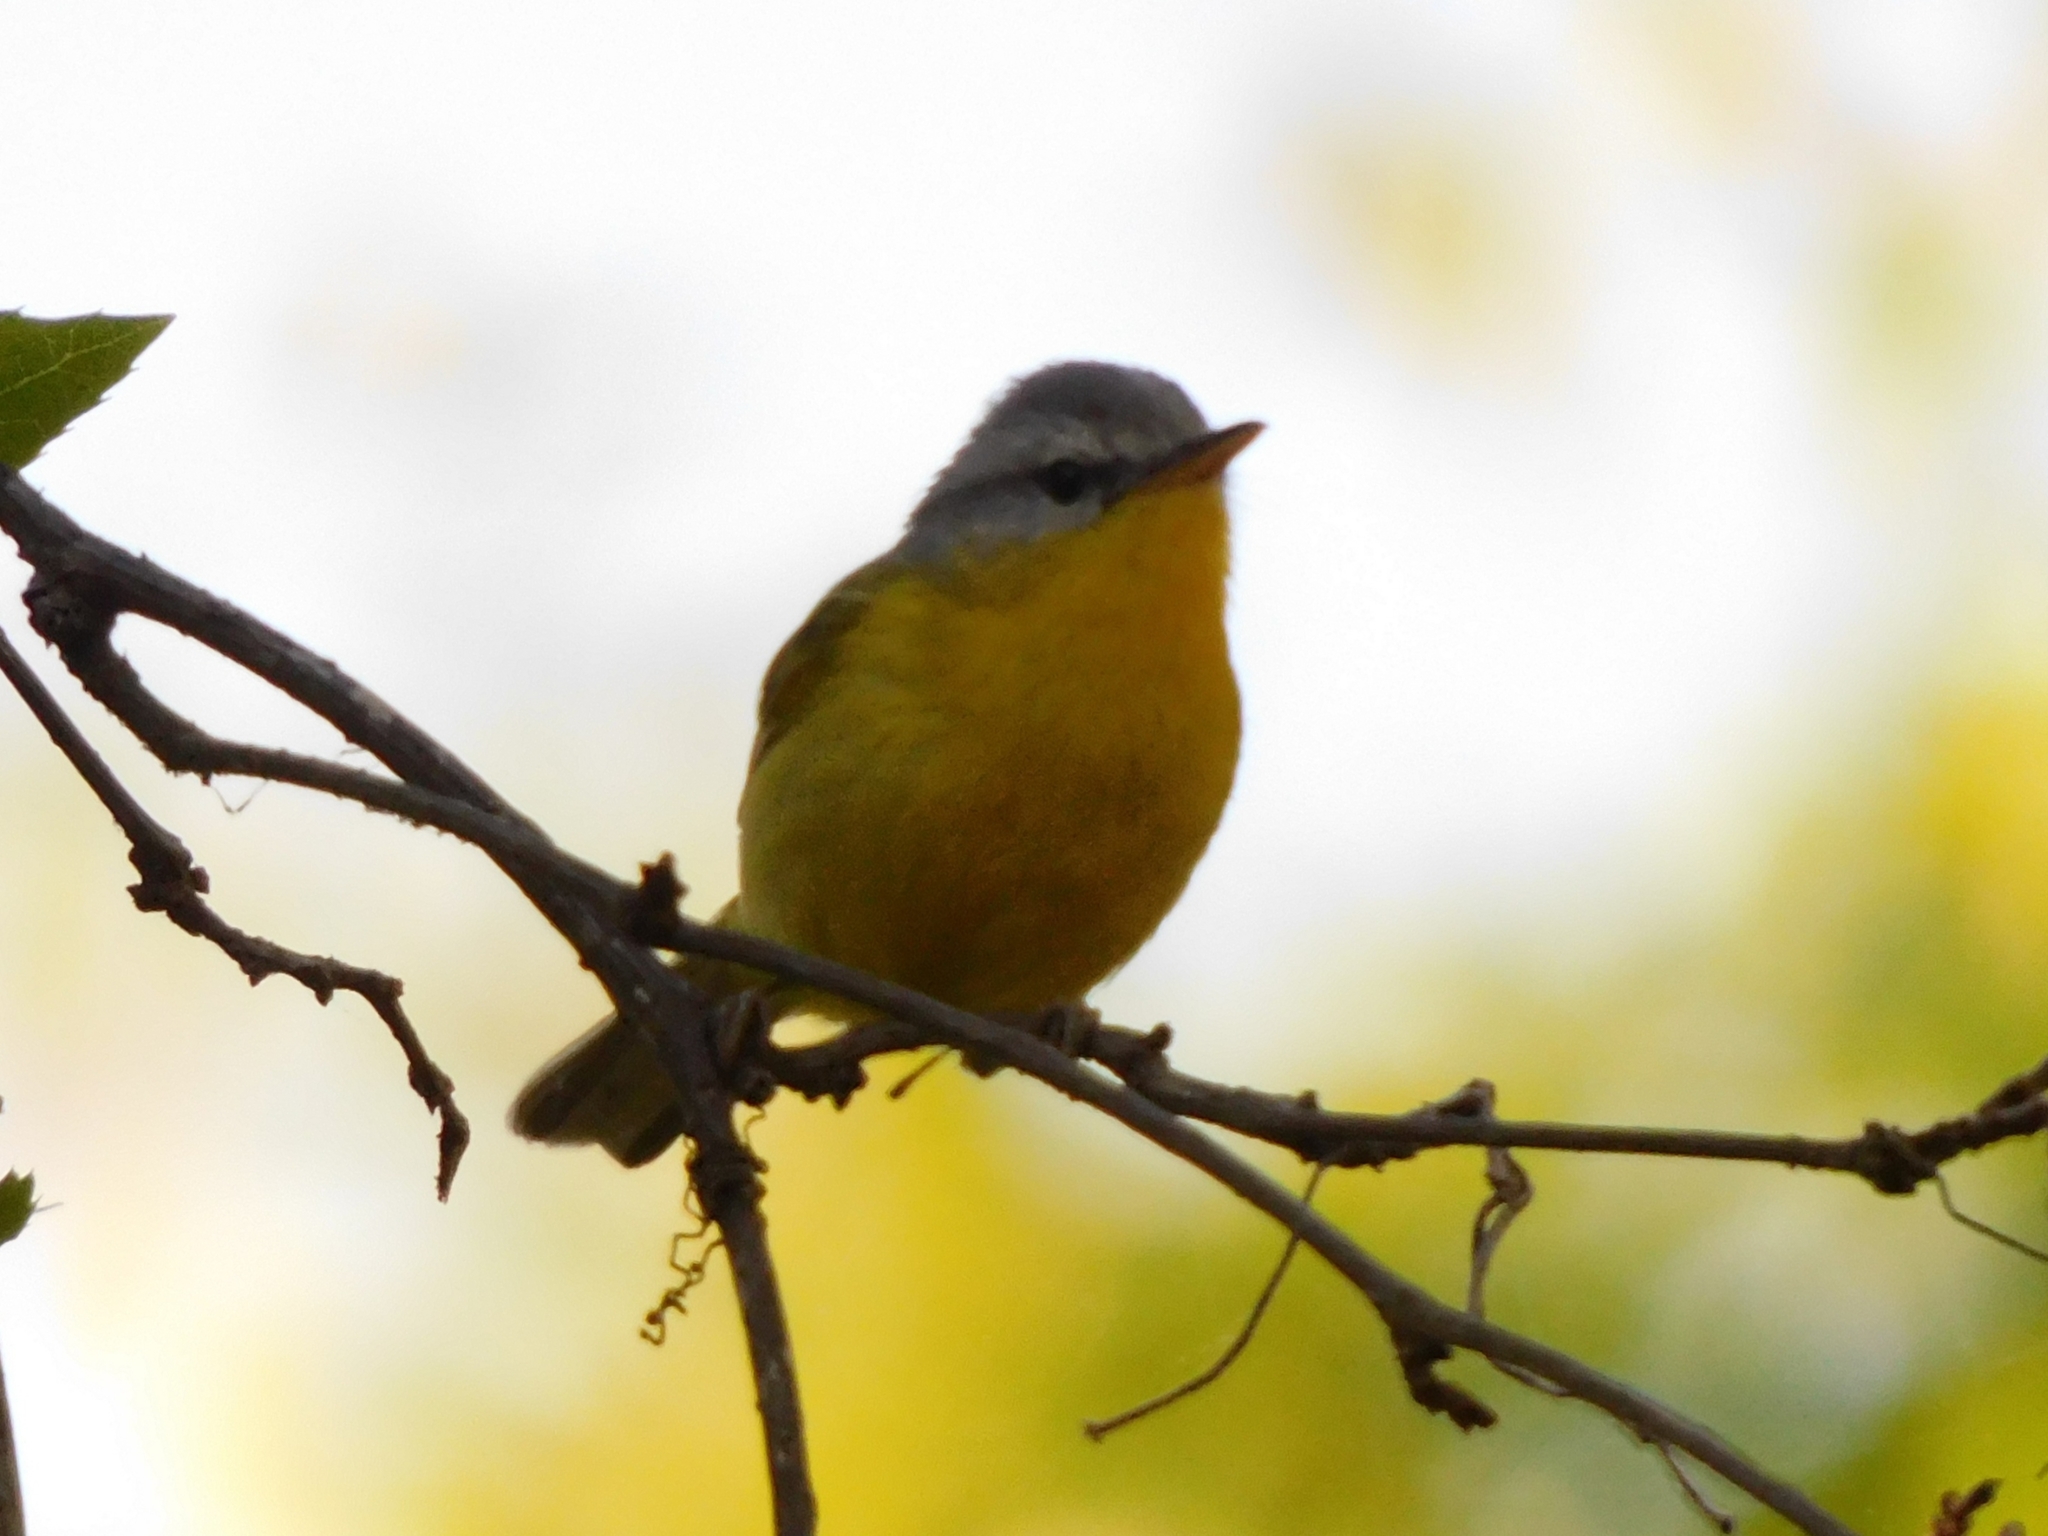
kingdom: Animalia
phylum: Chordata
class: Aves
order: Passeriformes
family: Phylloscopidae
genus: Phylloscopus
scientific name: Phylloscopus xanthoschistos
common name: Grey-hooded warbler
